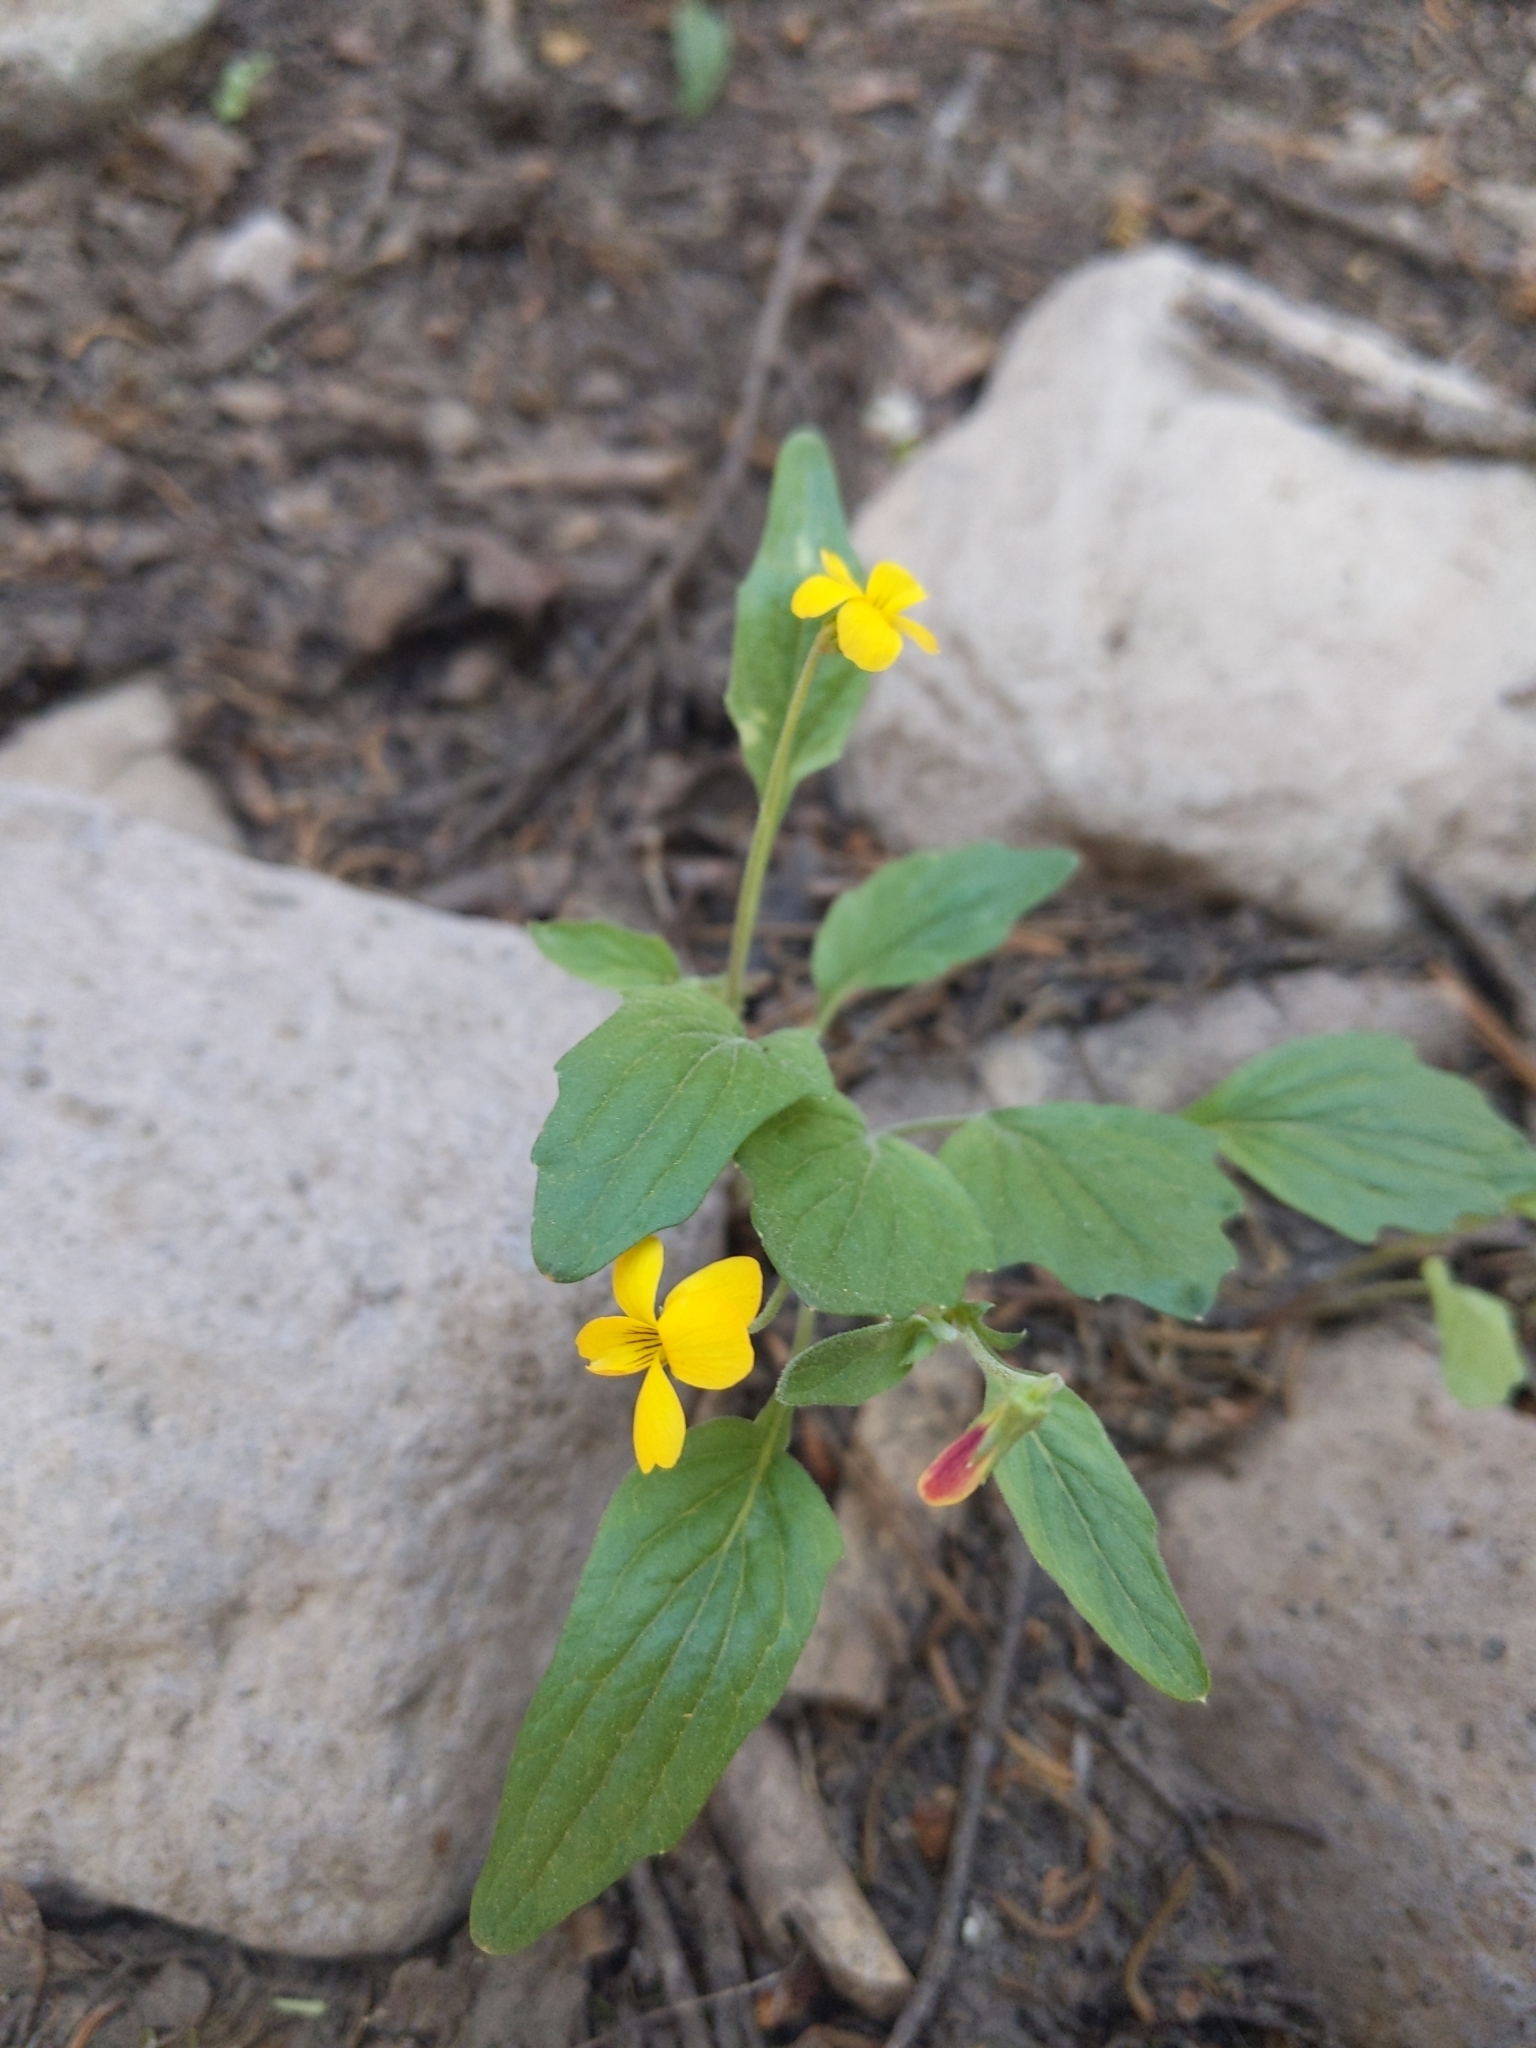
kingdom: Plantae
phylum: Tracheophyta
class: Magnoliopsida
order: Malpighiales
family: Violaceae
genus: Viola
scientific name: Viola pinetorum
